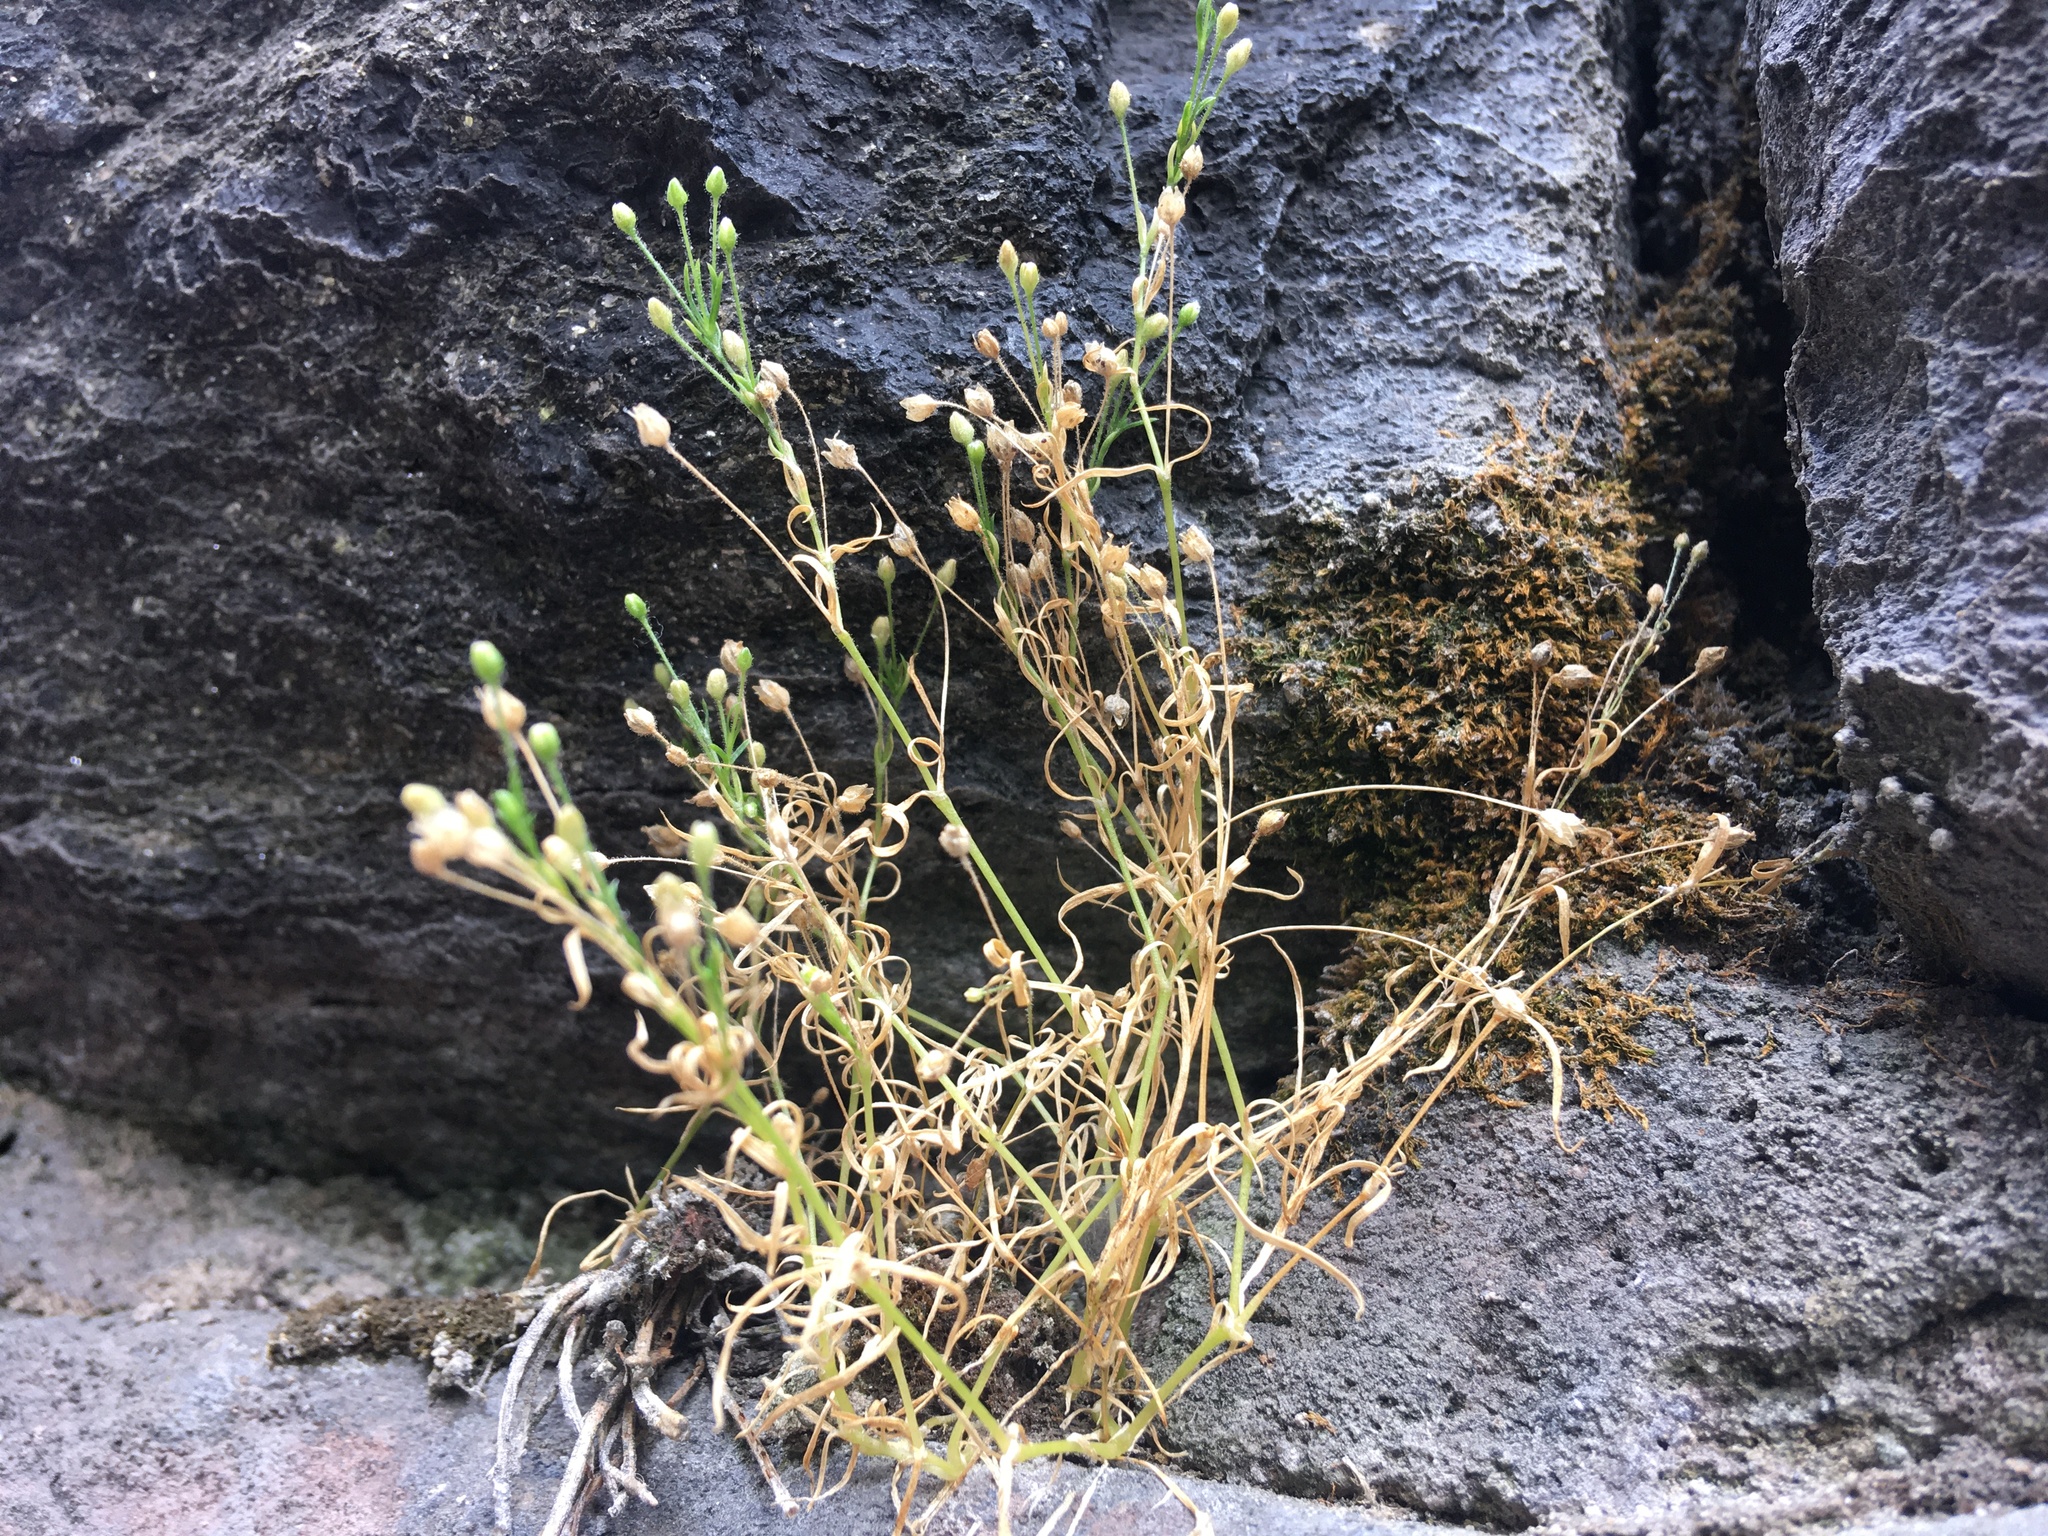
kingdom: Plantae
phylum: Tracheophyta
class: Magnoliopsida
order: Caryophyllales
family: Caryophyllaceae
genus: Sagina
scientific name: Sagina japonica
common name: Japanese pearlwort
